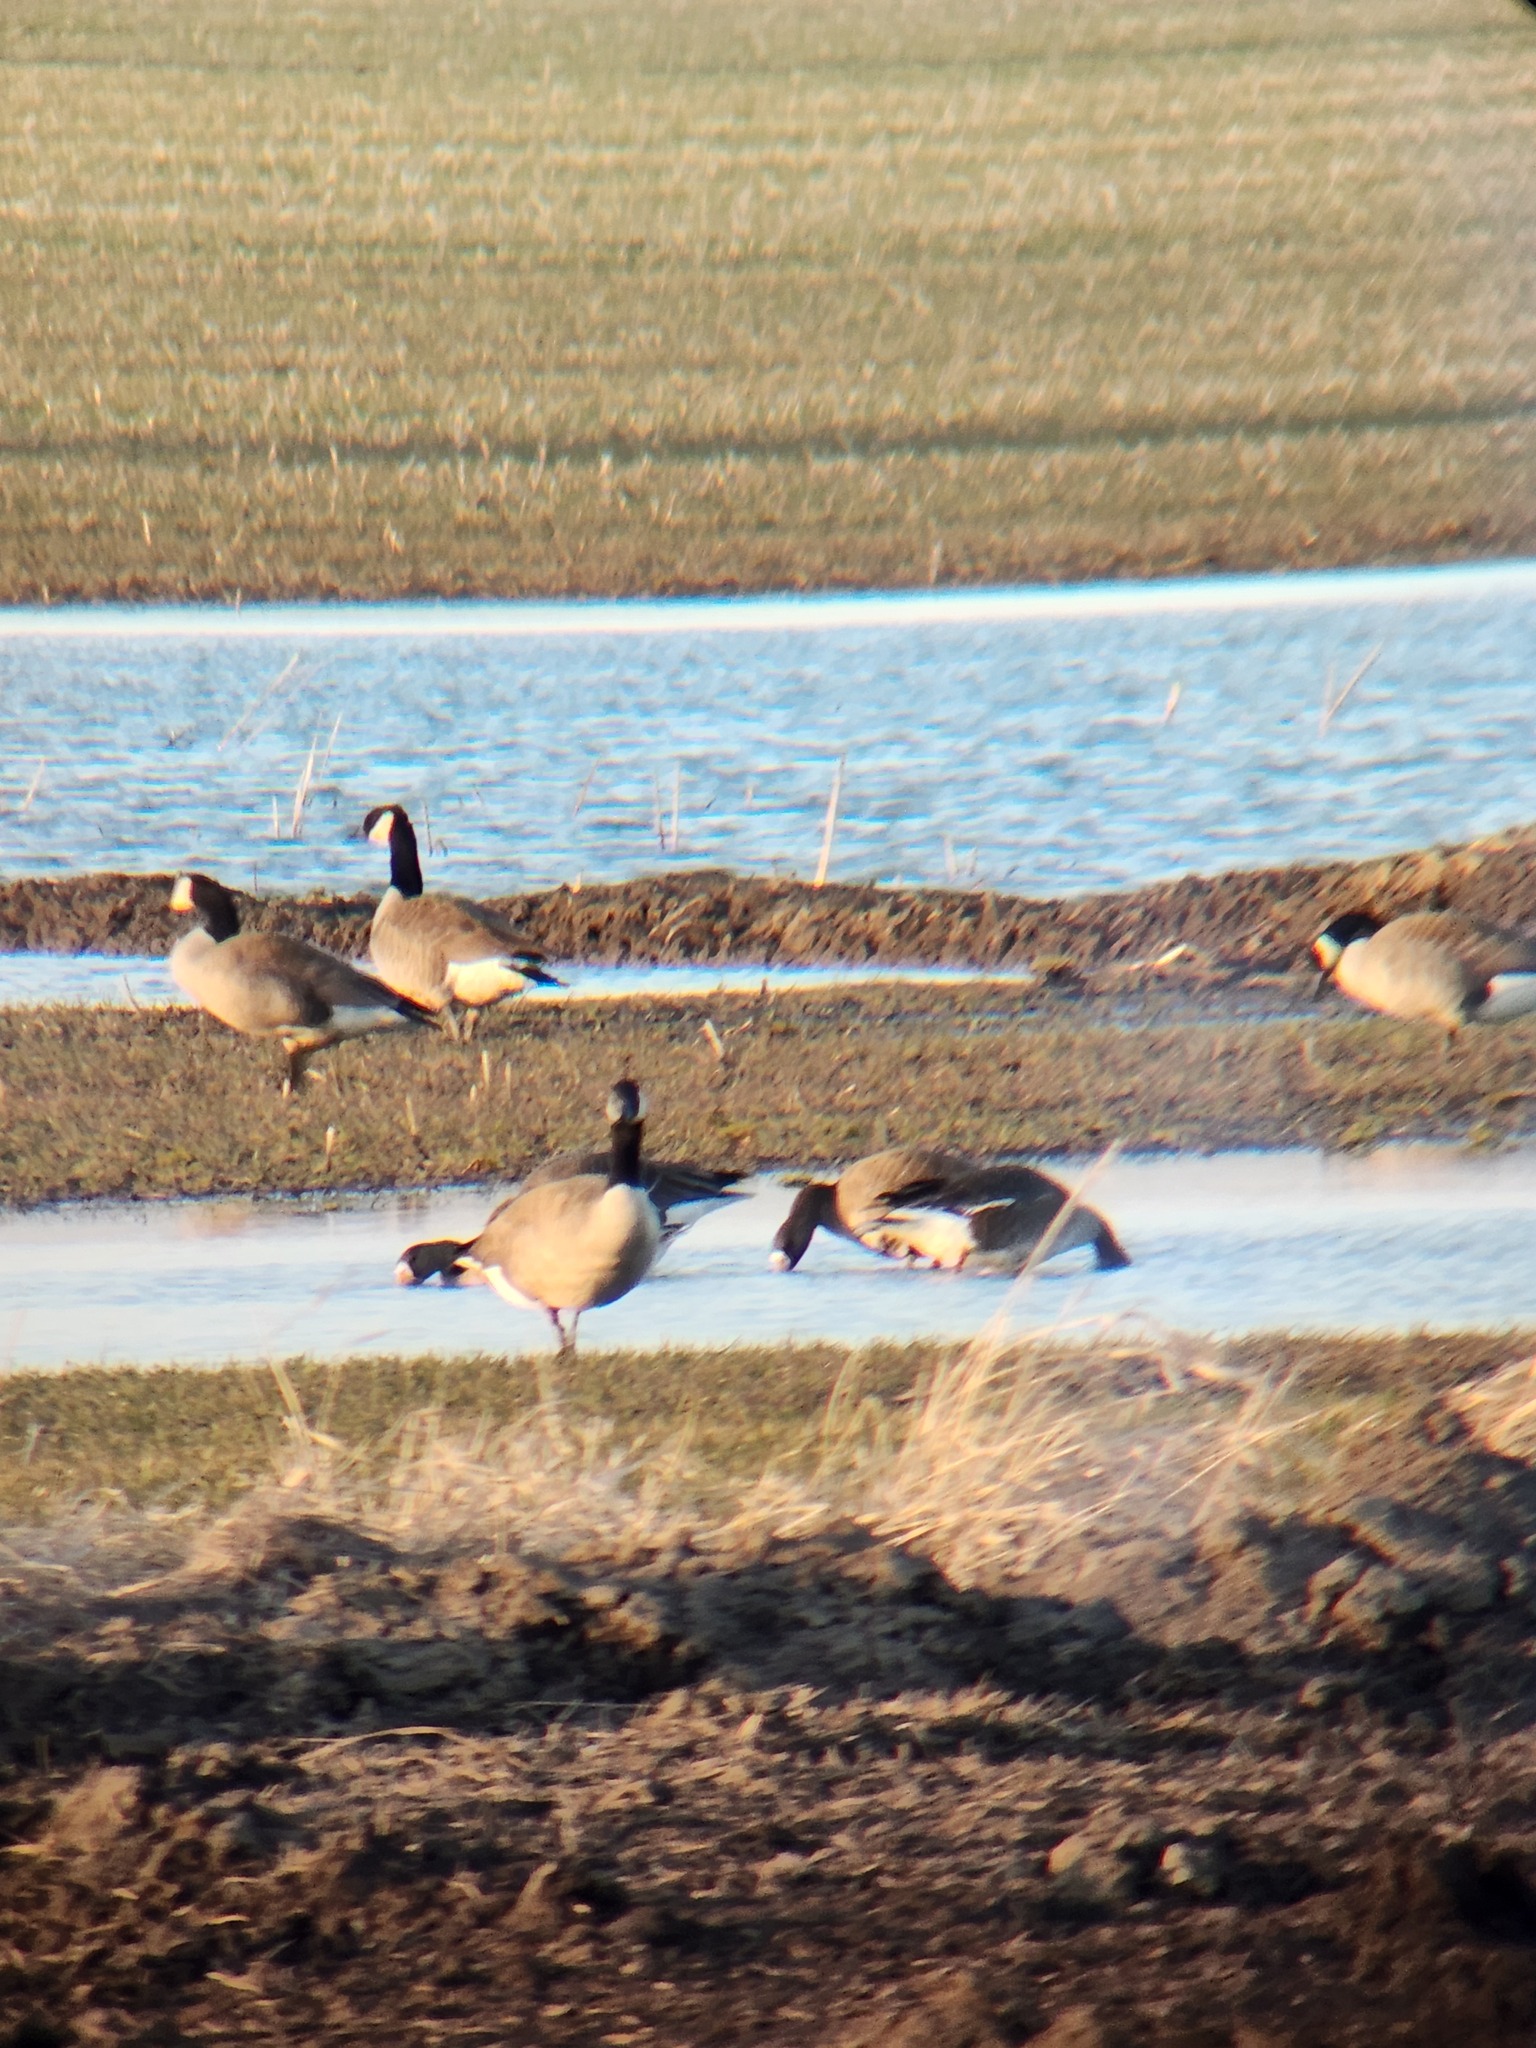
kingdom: Animalia
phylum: Chordata
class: Aves
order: Anseriformes
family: Anatidae
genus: Anser
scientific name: Anser albifrons
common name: Greater white-fronted goose
